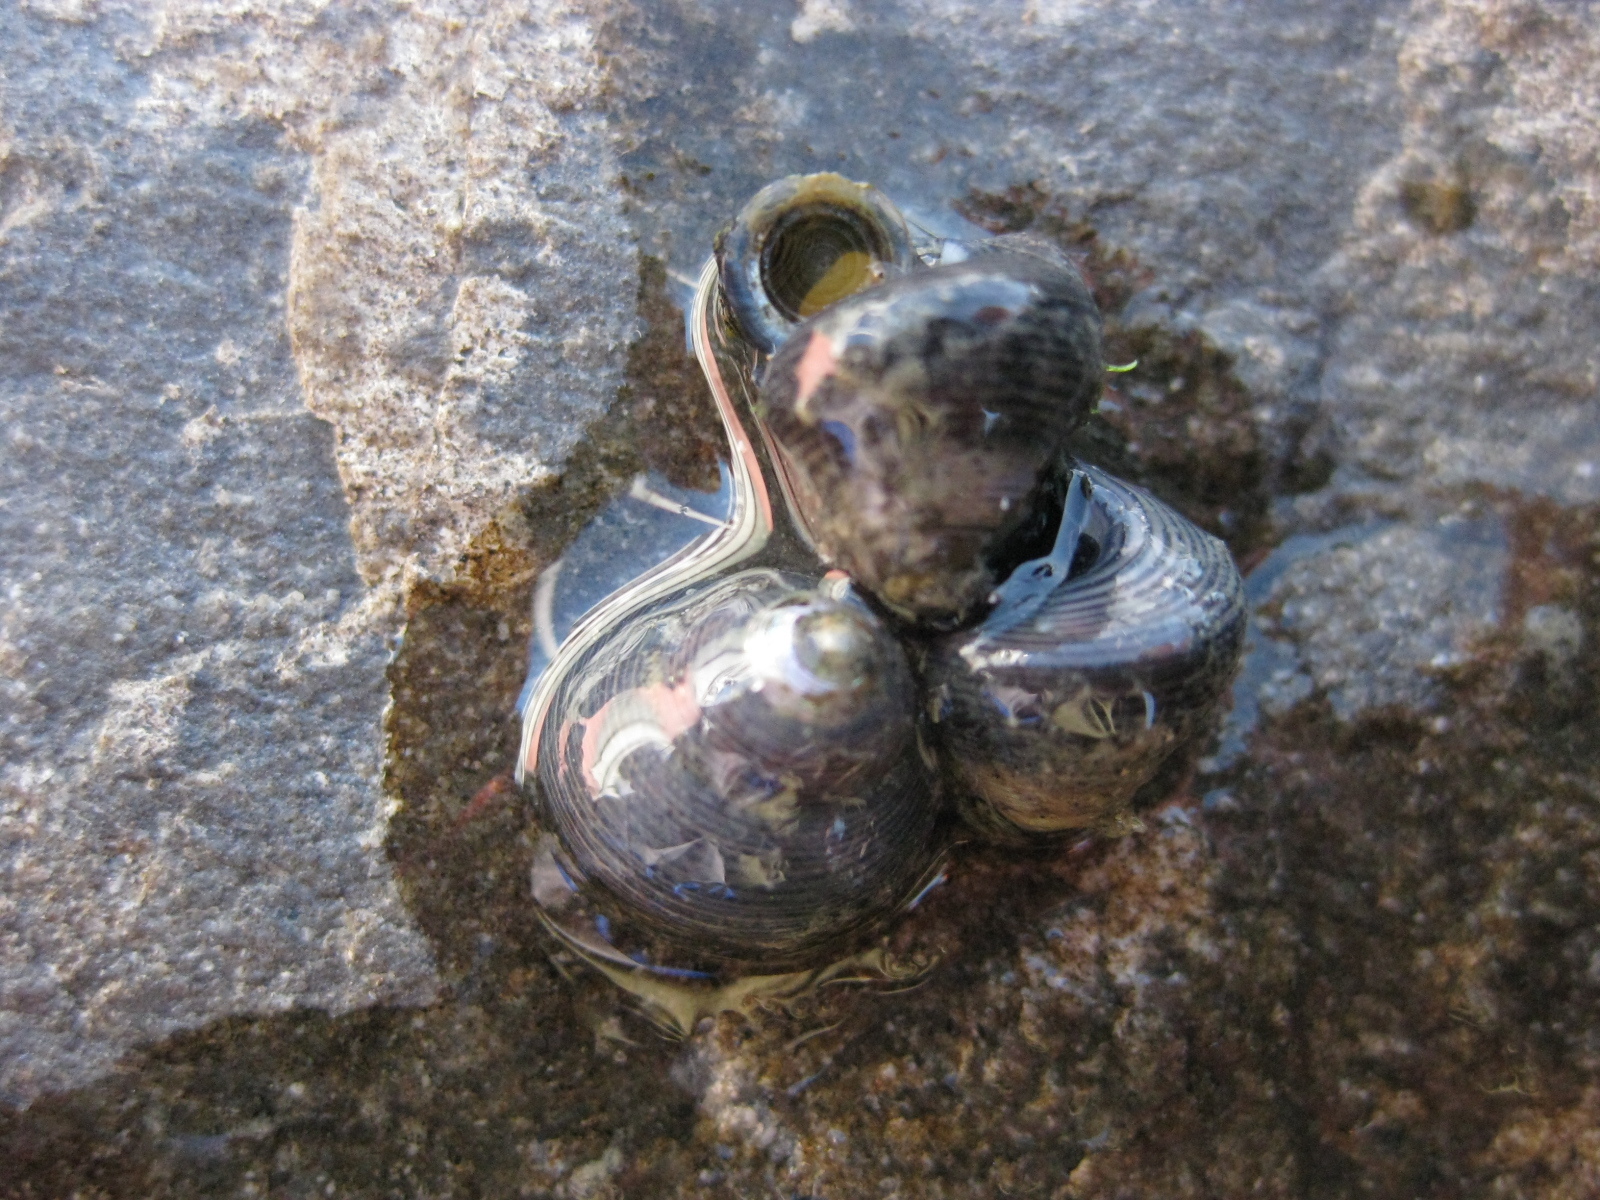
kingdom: Animalia
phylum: Mollusca
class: Gastropoda
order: Trochida
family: Trochidae
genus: Micrelenchus
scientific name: Micrelenchus huttonii
